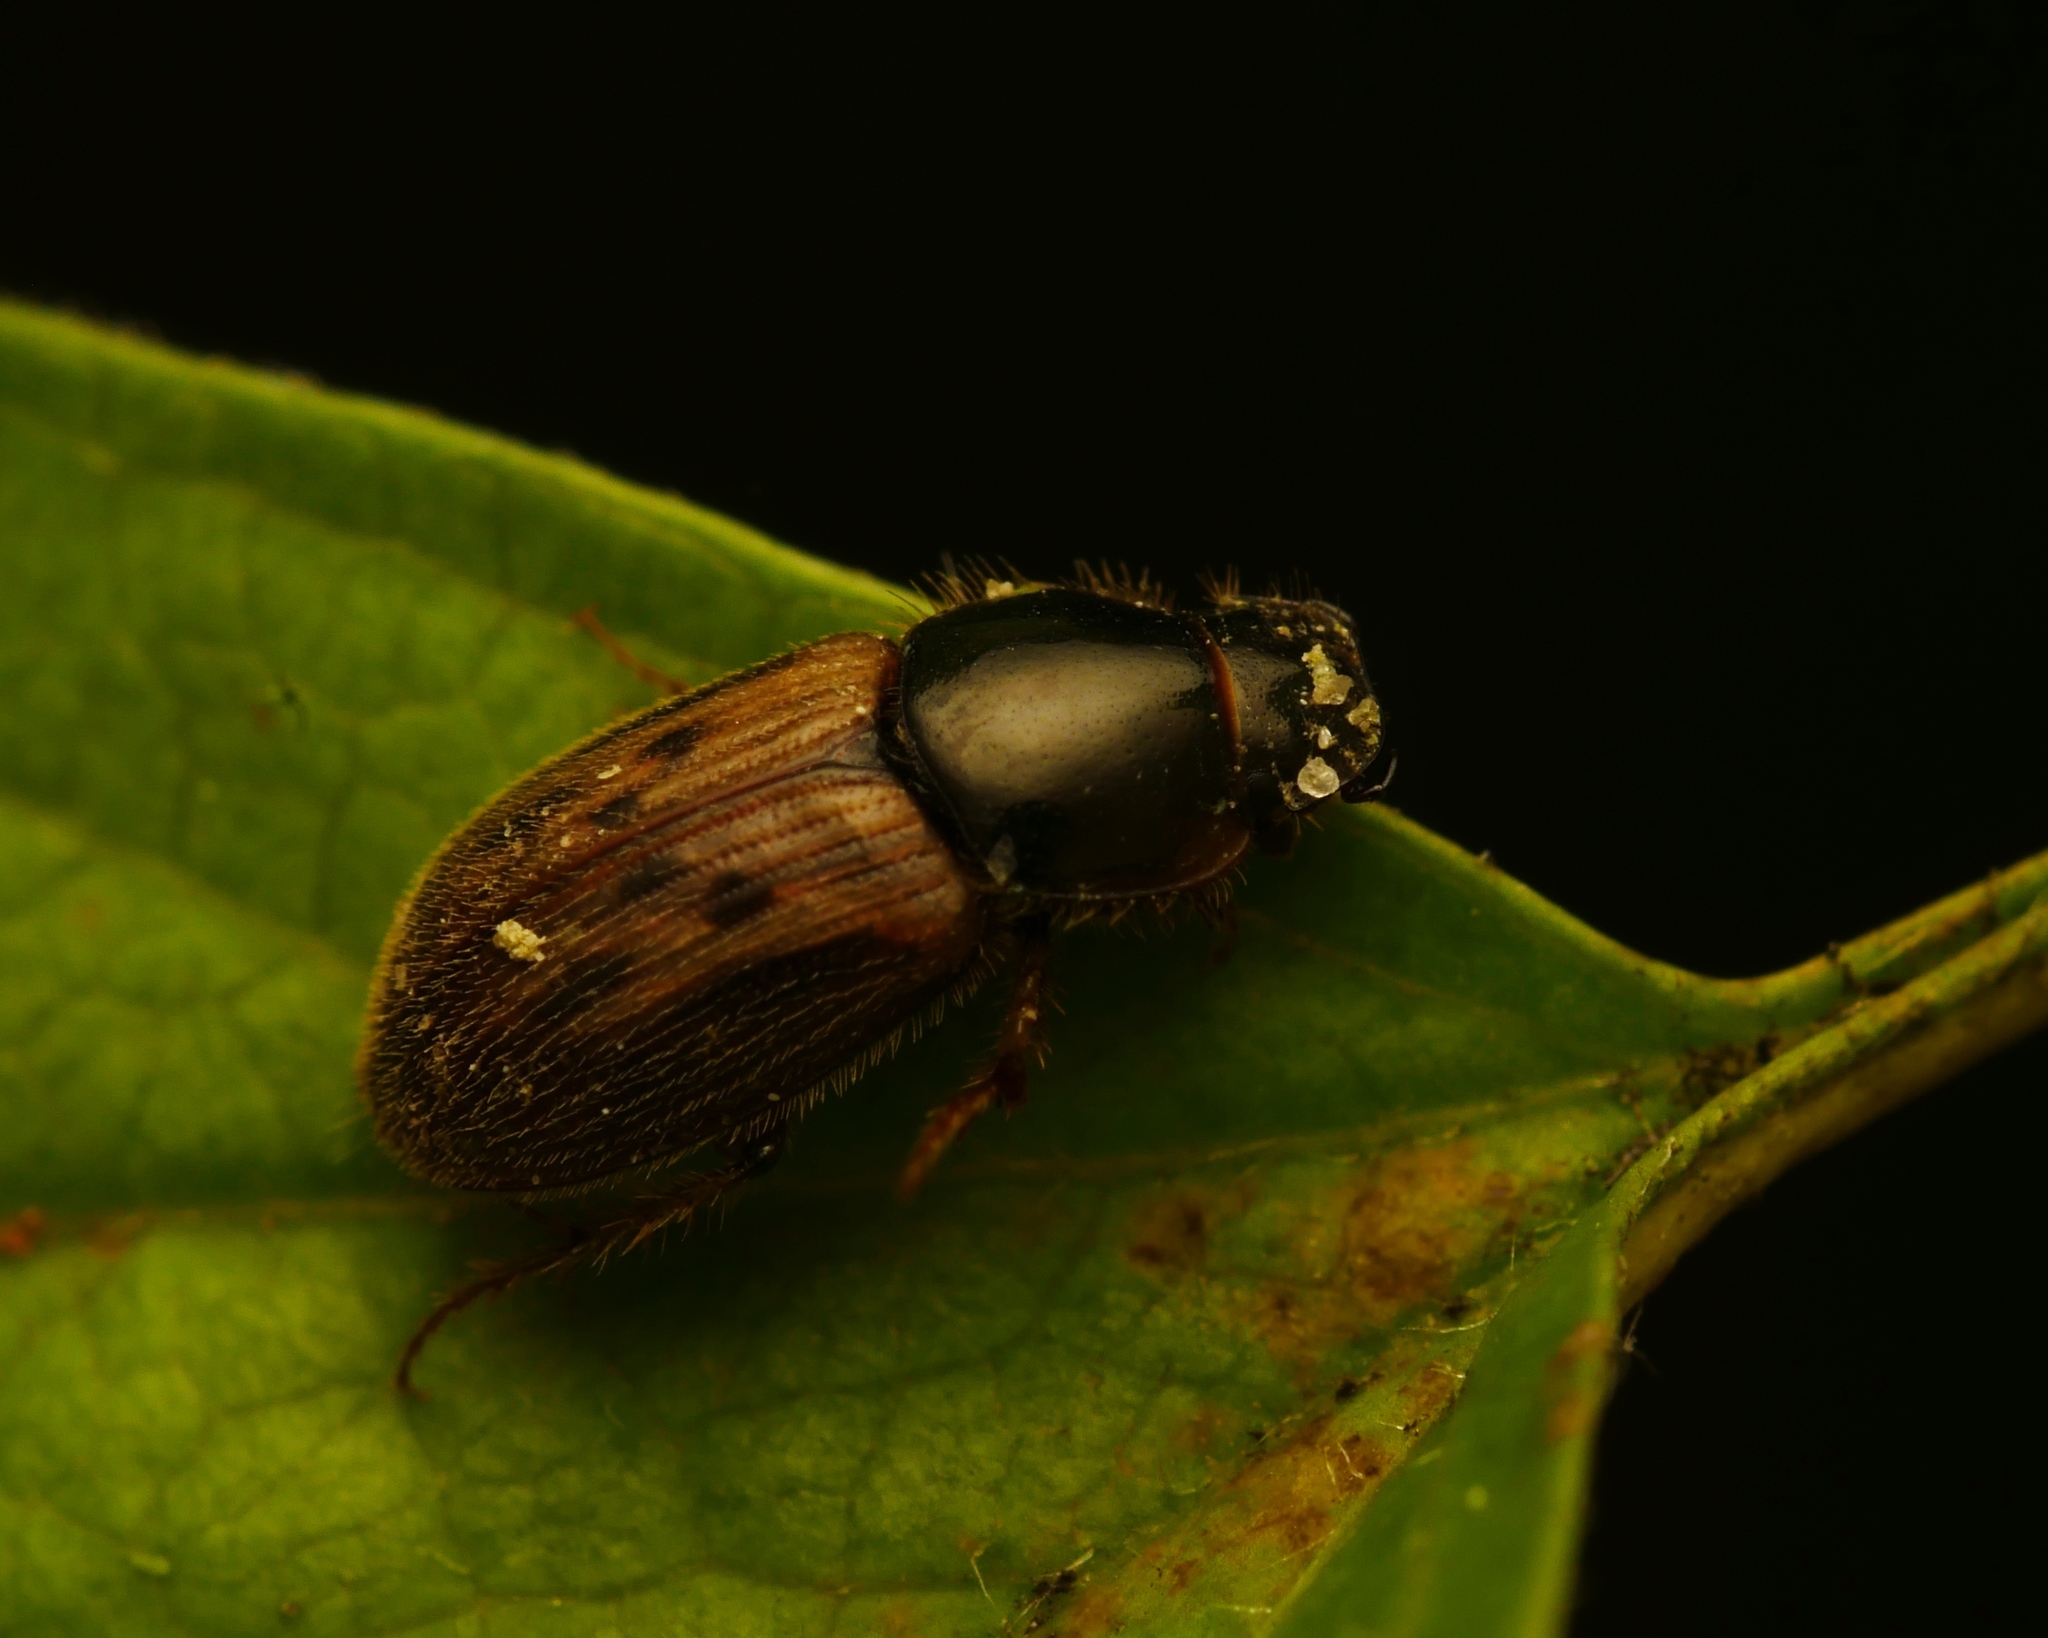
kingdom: Animalia
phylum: Arthropoda
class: Insecta
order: Coleoptera
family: Scarabaeidae
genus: Nimbus
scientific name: Nimbus contaminatus
